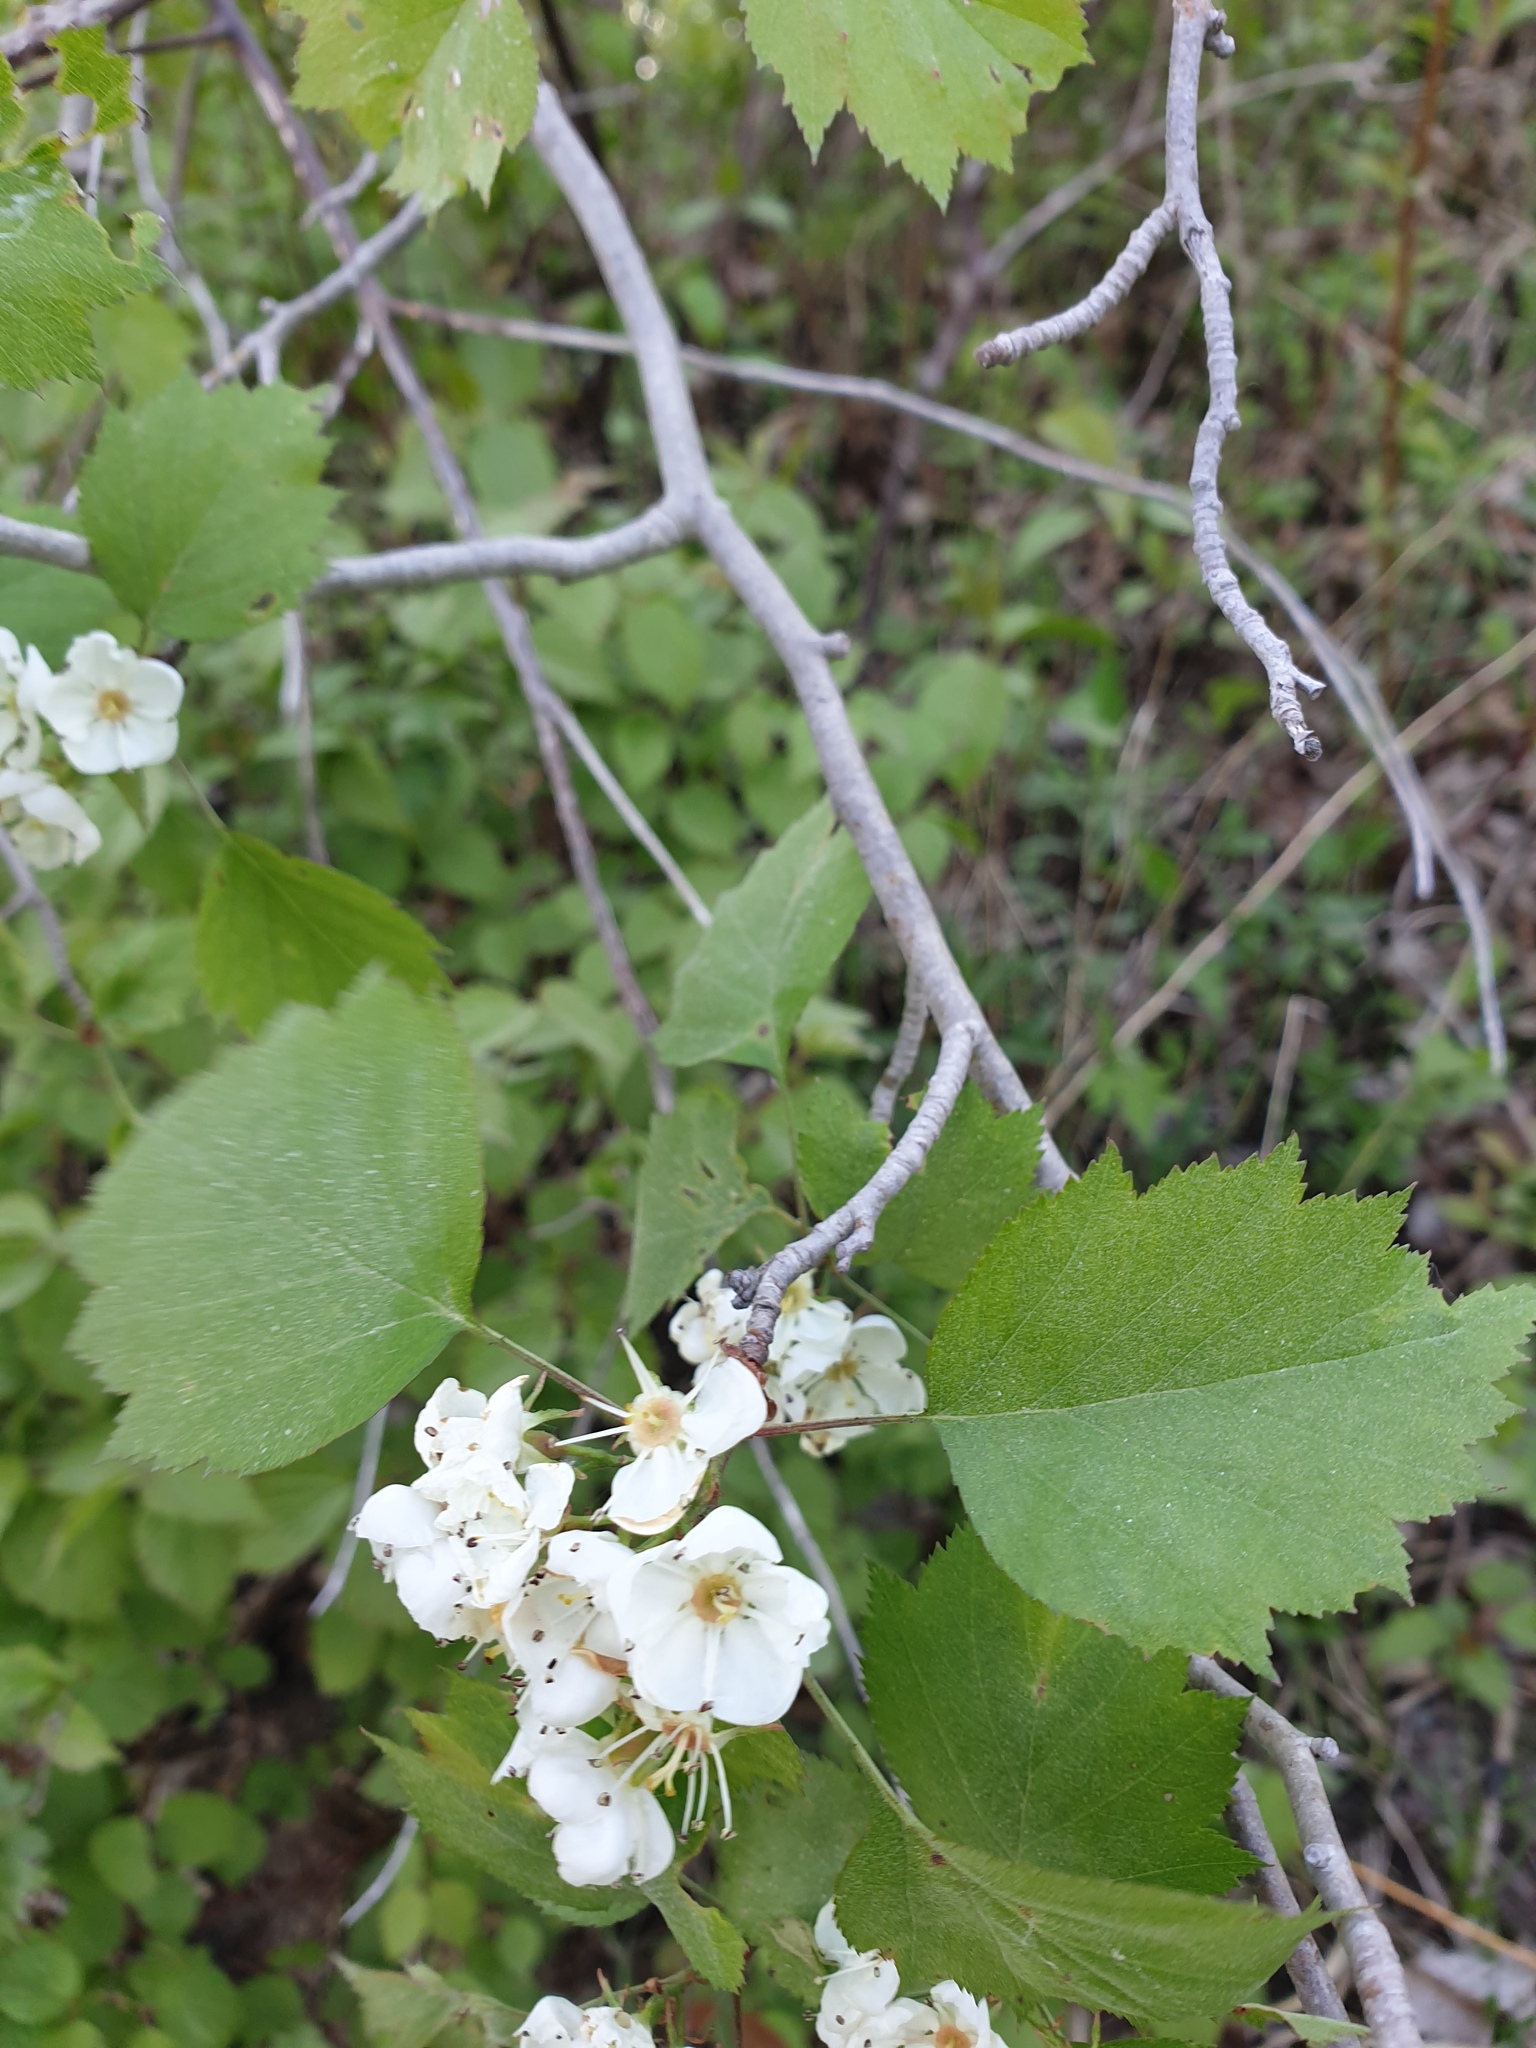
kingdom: Plantae
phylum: Tracheophyta
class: Magnoliopsida
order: Rosales
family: Rosaceae
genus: Crataegus
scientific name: Crataegus macrosperma
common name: Variable hawthorn
